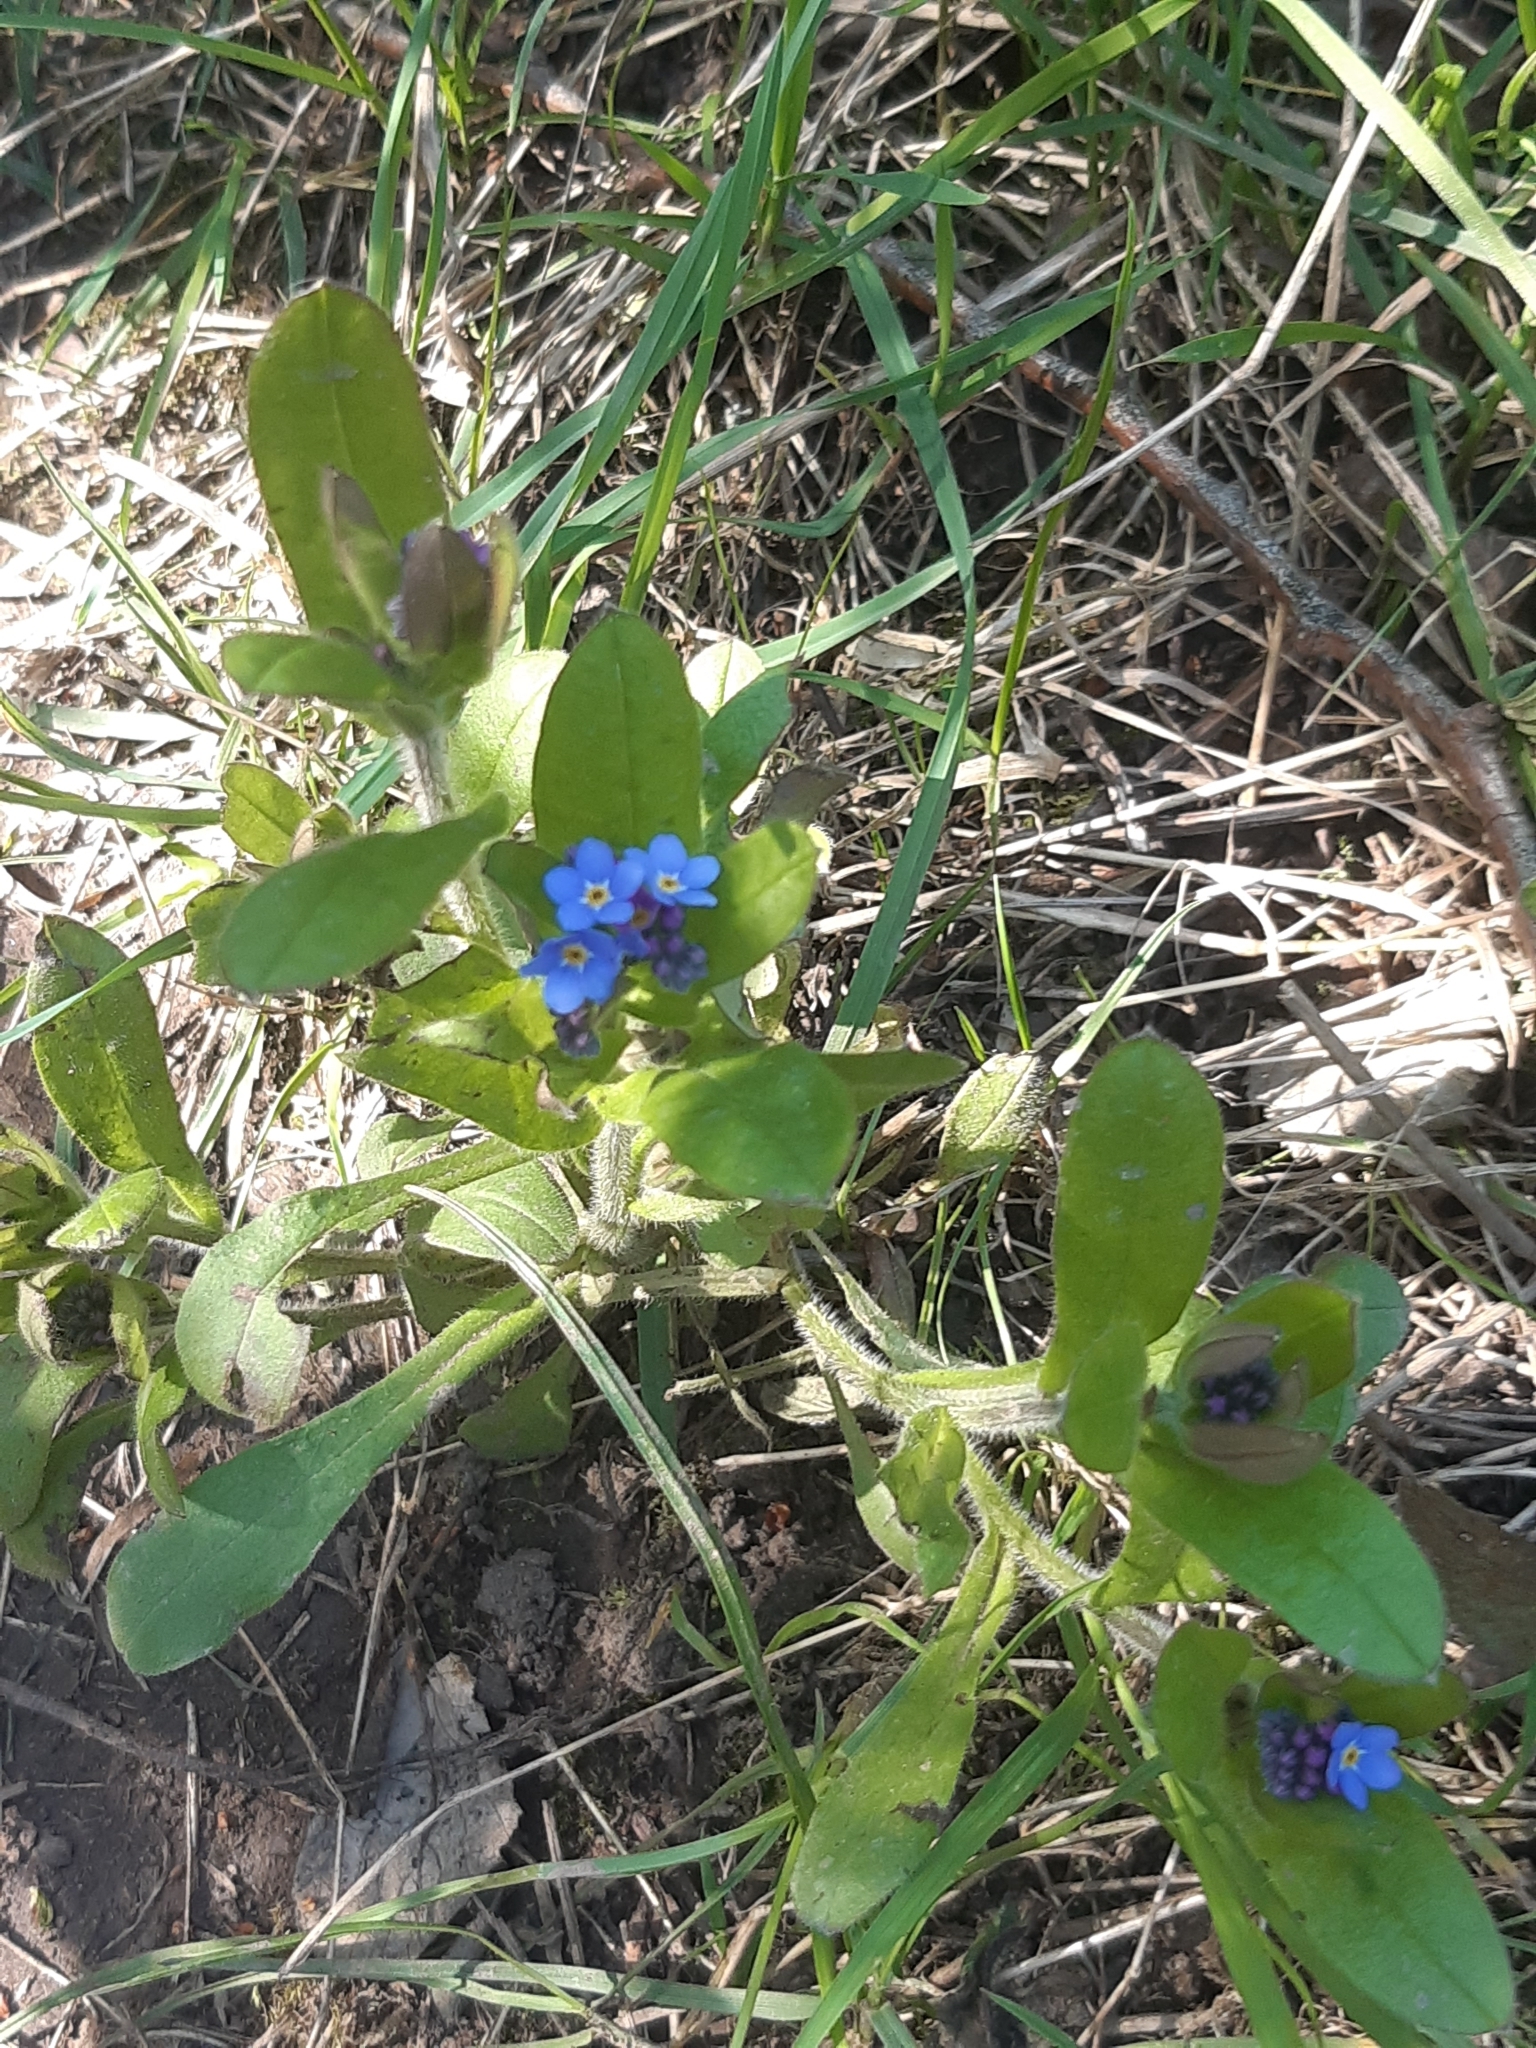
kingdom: Plantae
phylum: Tracheophyta
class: Magnoliopsida
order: Boraginales
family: Boraginaceae
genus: Myosotis
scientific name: Myosotis sylvatica
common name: Wood forget-me-not
